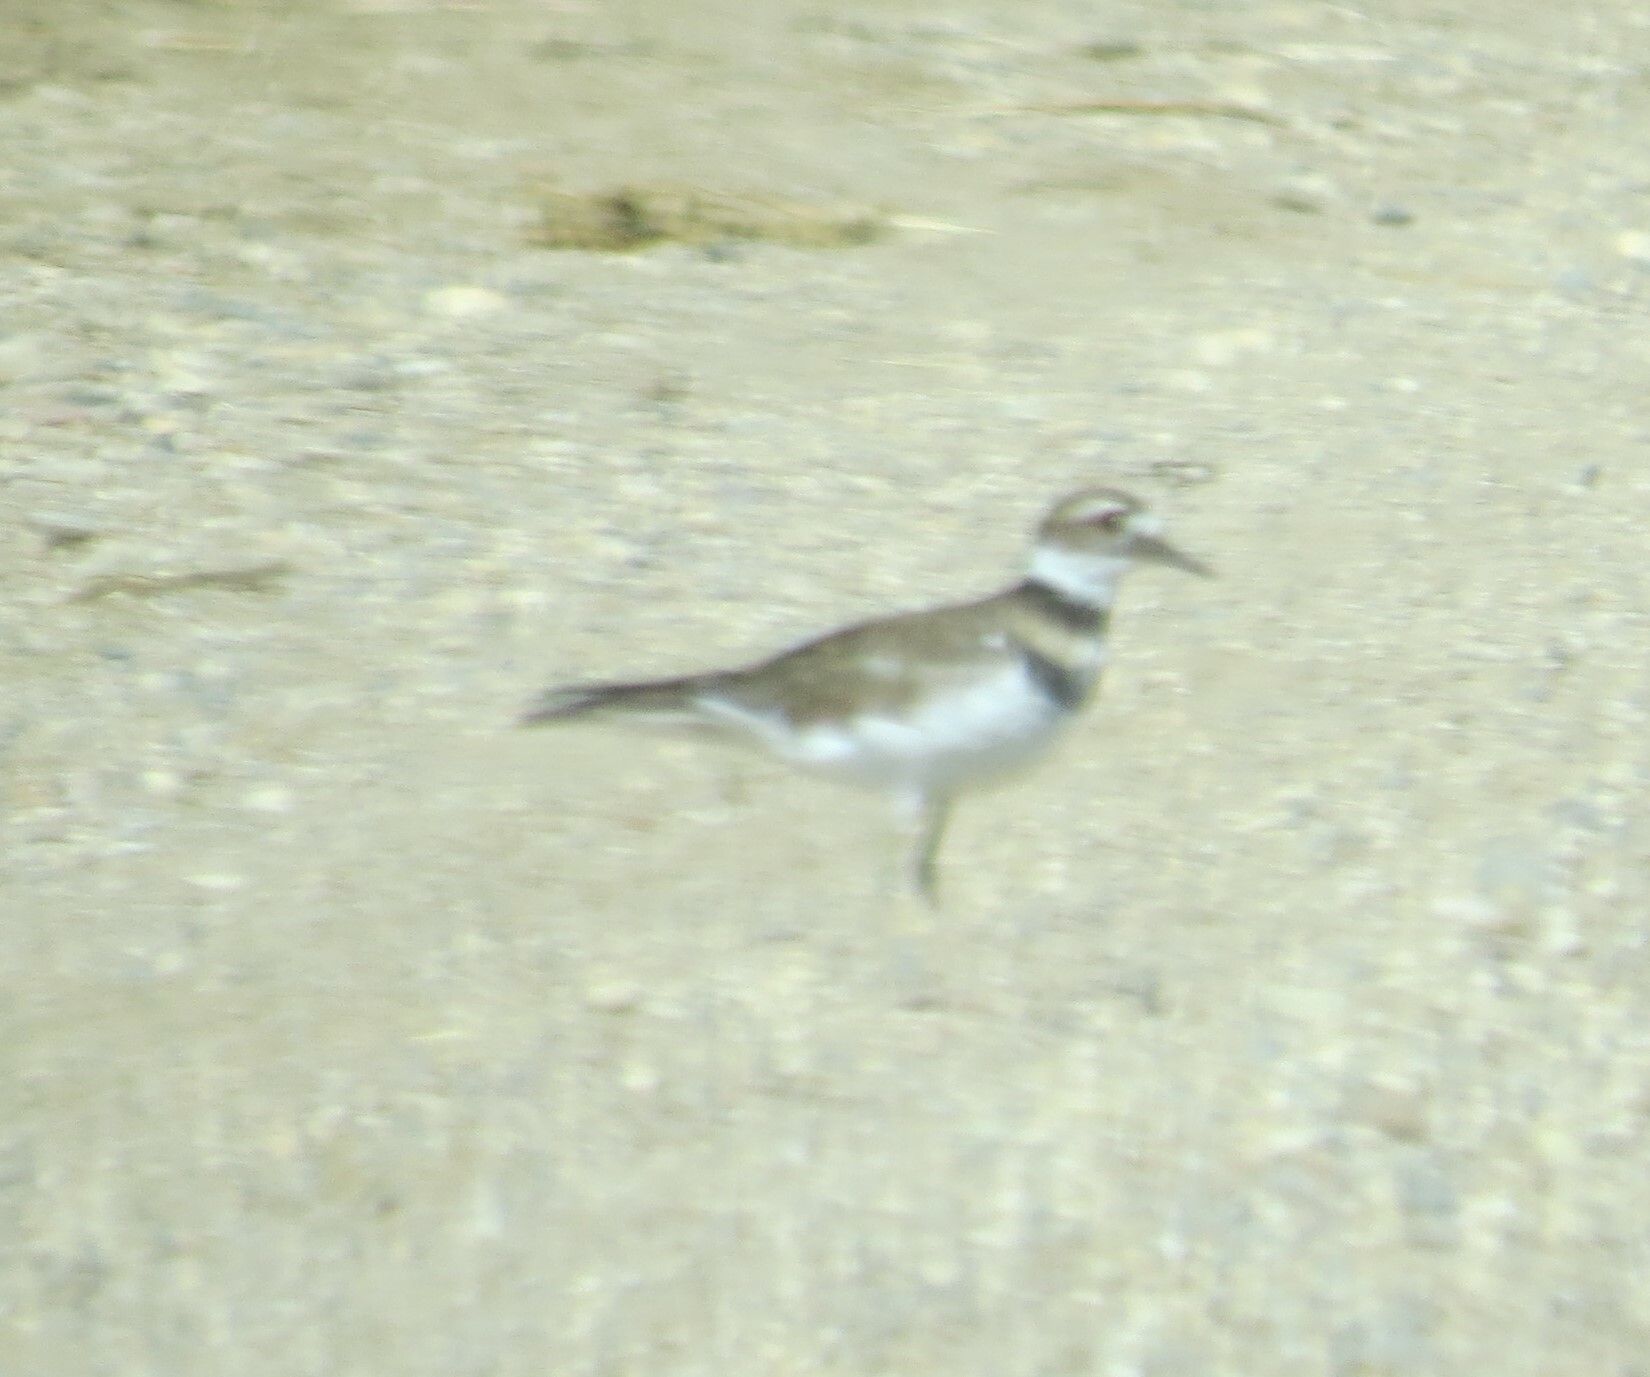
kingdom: Animalia
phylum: Chordata
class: Aves
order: Charadriiformes
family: Charadriidae
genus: Charadrius
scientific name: Charadrius vociferus
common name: Killdeer
